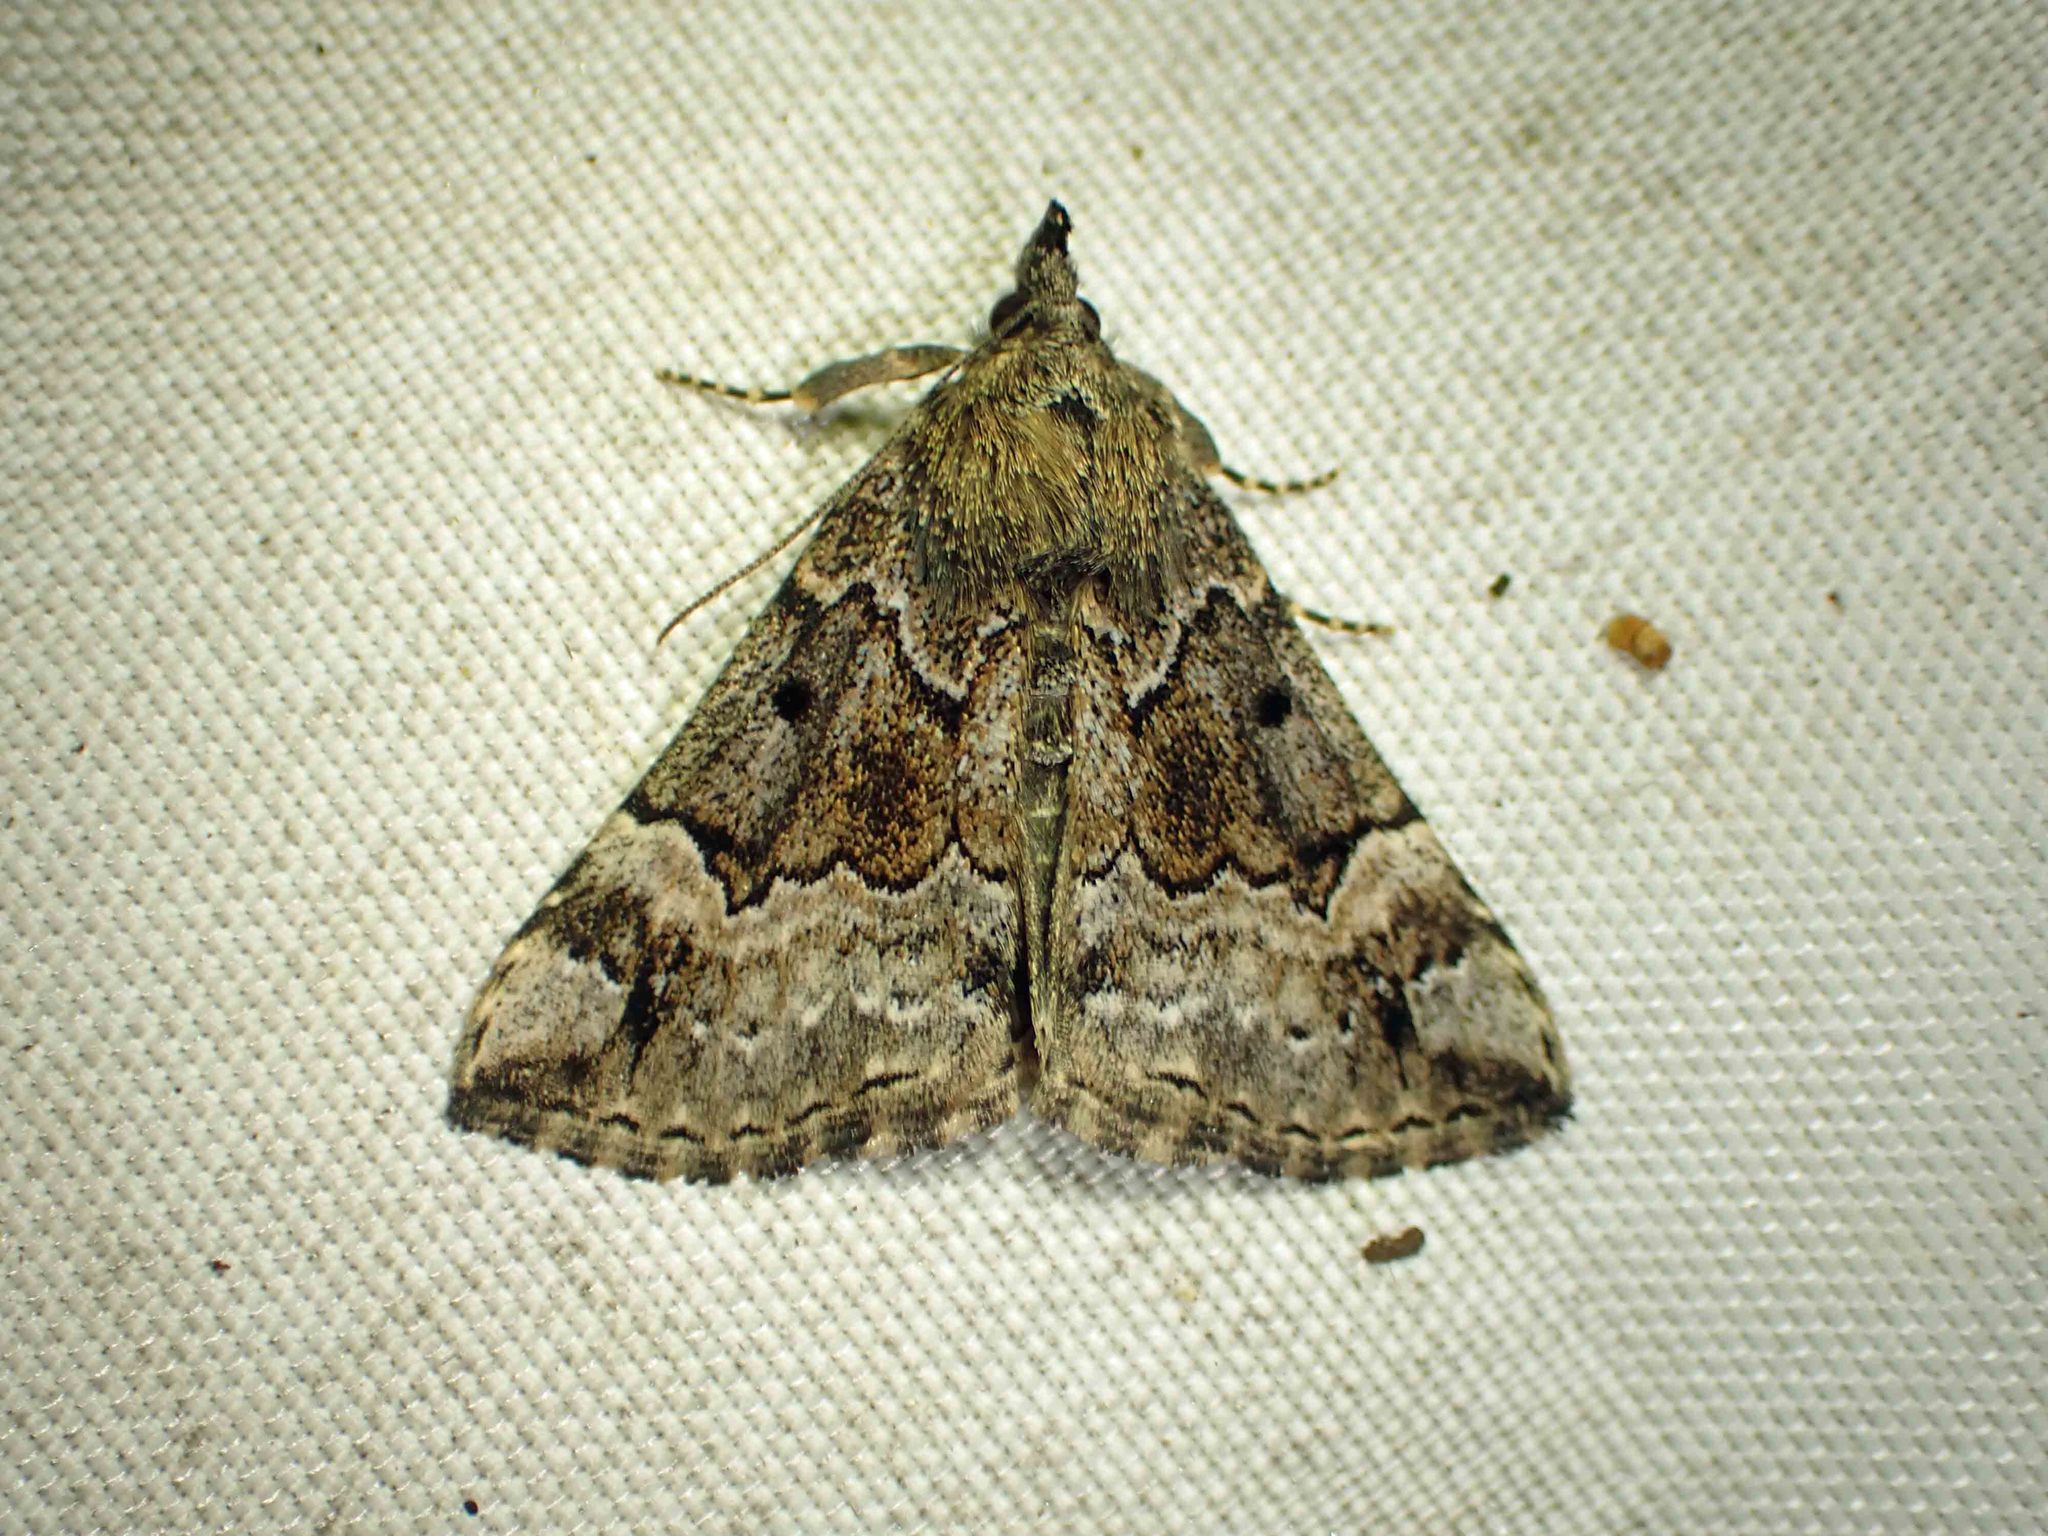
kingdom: Animalia
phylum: Arthropoda
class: Insecta
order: Lepidoptera
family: Erebidae
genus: Hypena
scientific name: Hypena palparia
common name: Mottled bomolocha moth
